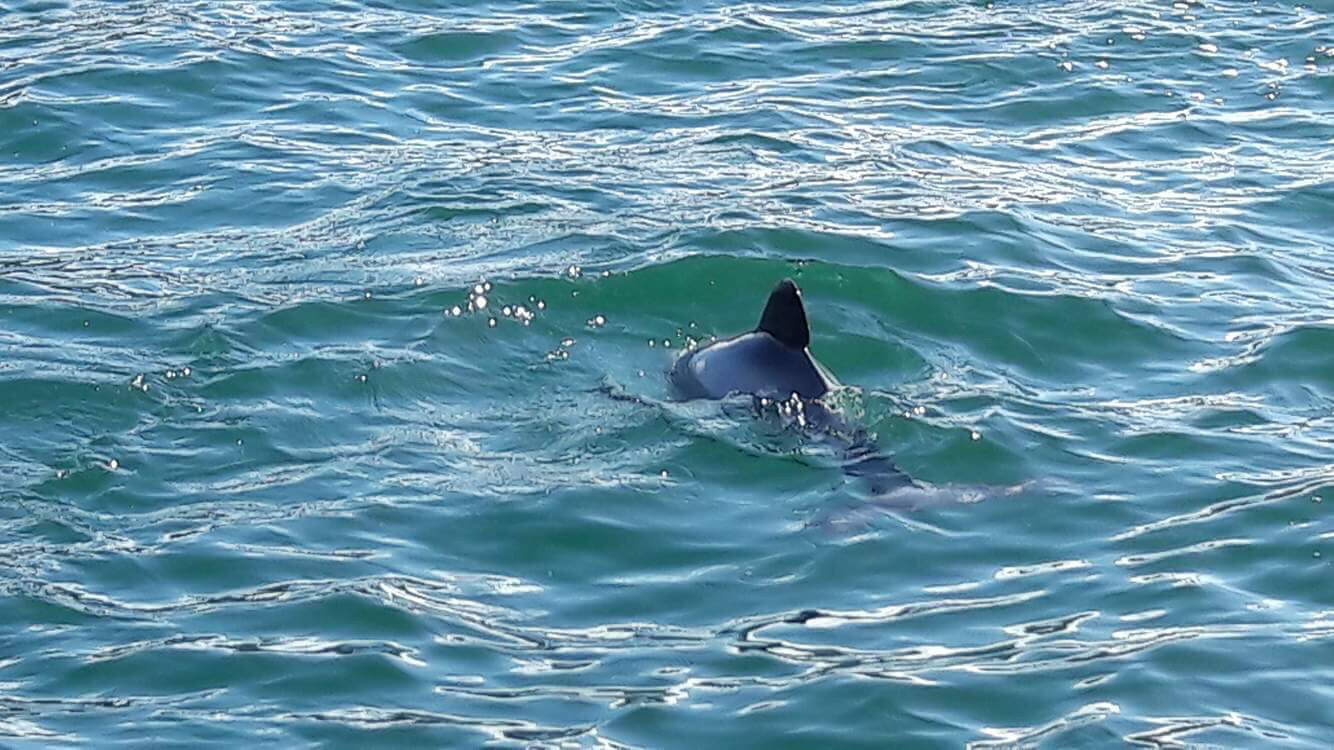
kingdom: Animalia
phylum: Chordata
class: Mammalia
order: Cetacea
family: Delphinidae
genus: Cephalorhynchus
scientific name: Cephalorhynchus hectori
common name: Hector's dolphin
